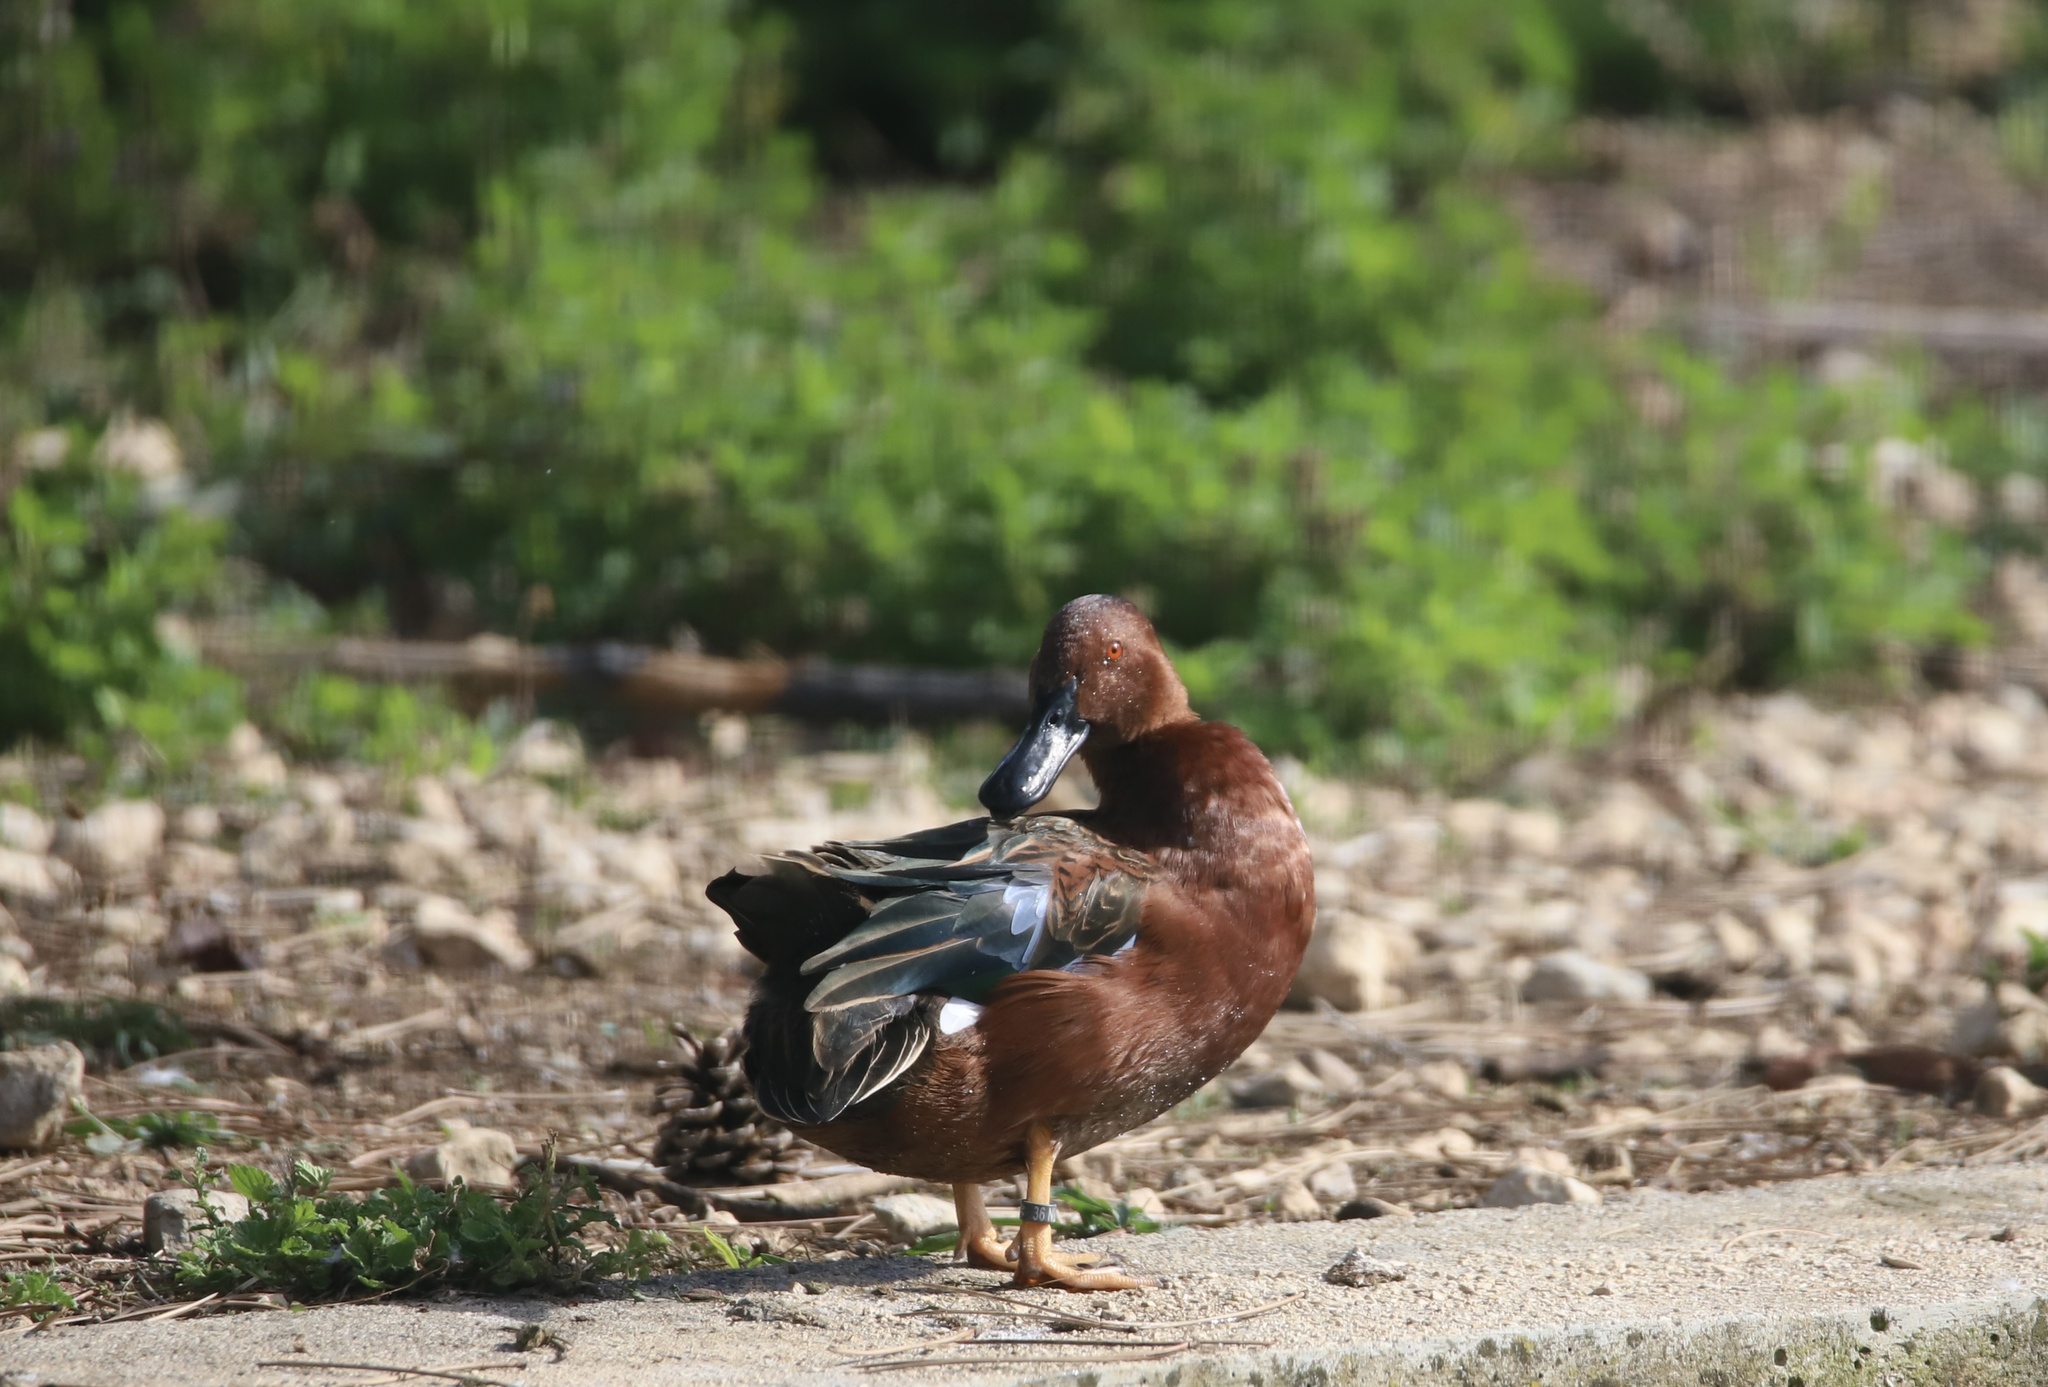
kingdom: Animalia
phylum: Chordata
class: Aves
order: Anseriformes
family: Anatidae
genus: Spatula
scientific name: Spatula cyanoptera
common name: Cinnamon teal
